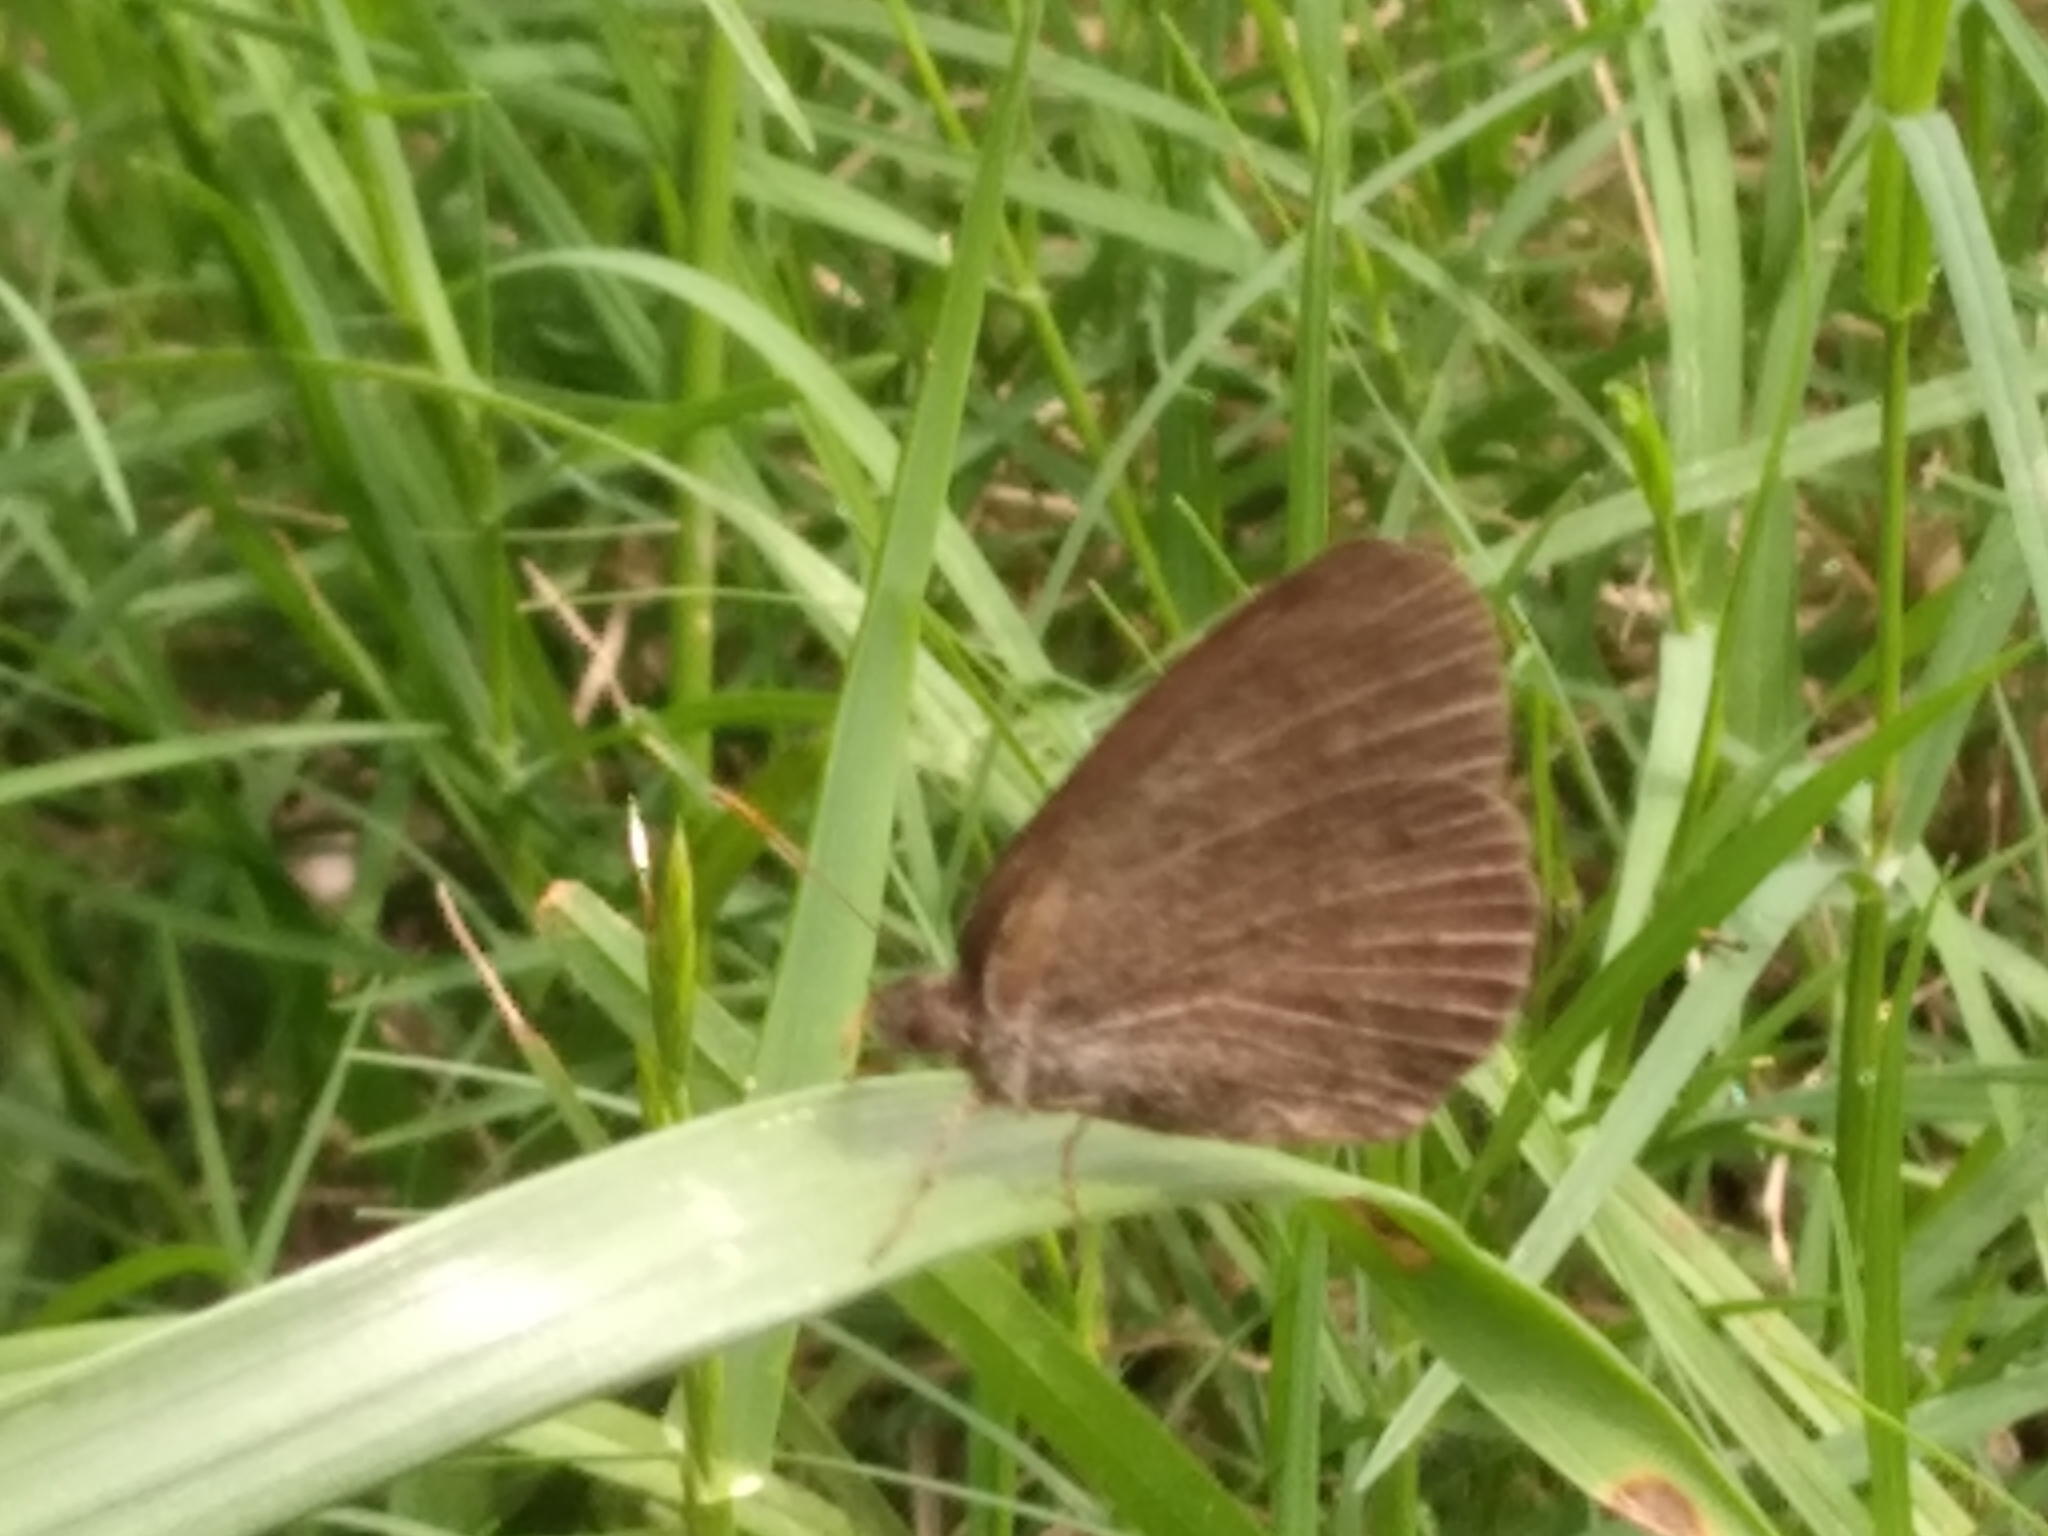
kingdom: Animalia
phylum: Arthropoda
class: Insecta
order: Lepidoptera
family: Nymphalidae
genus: Yphthimoides
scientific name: Yphthimoides celmis
